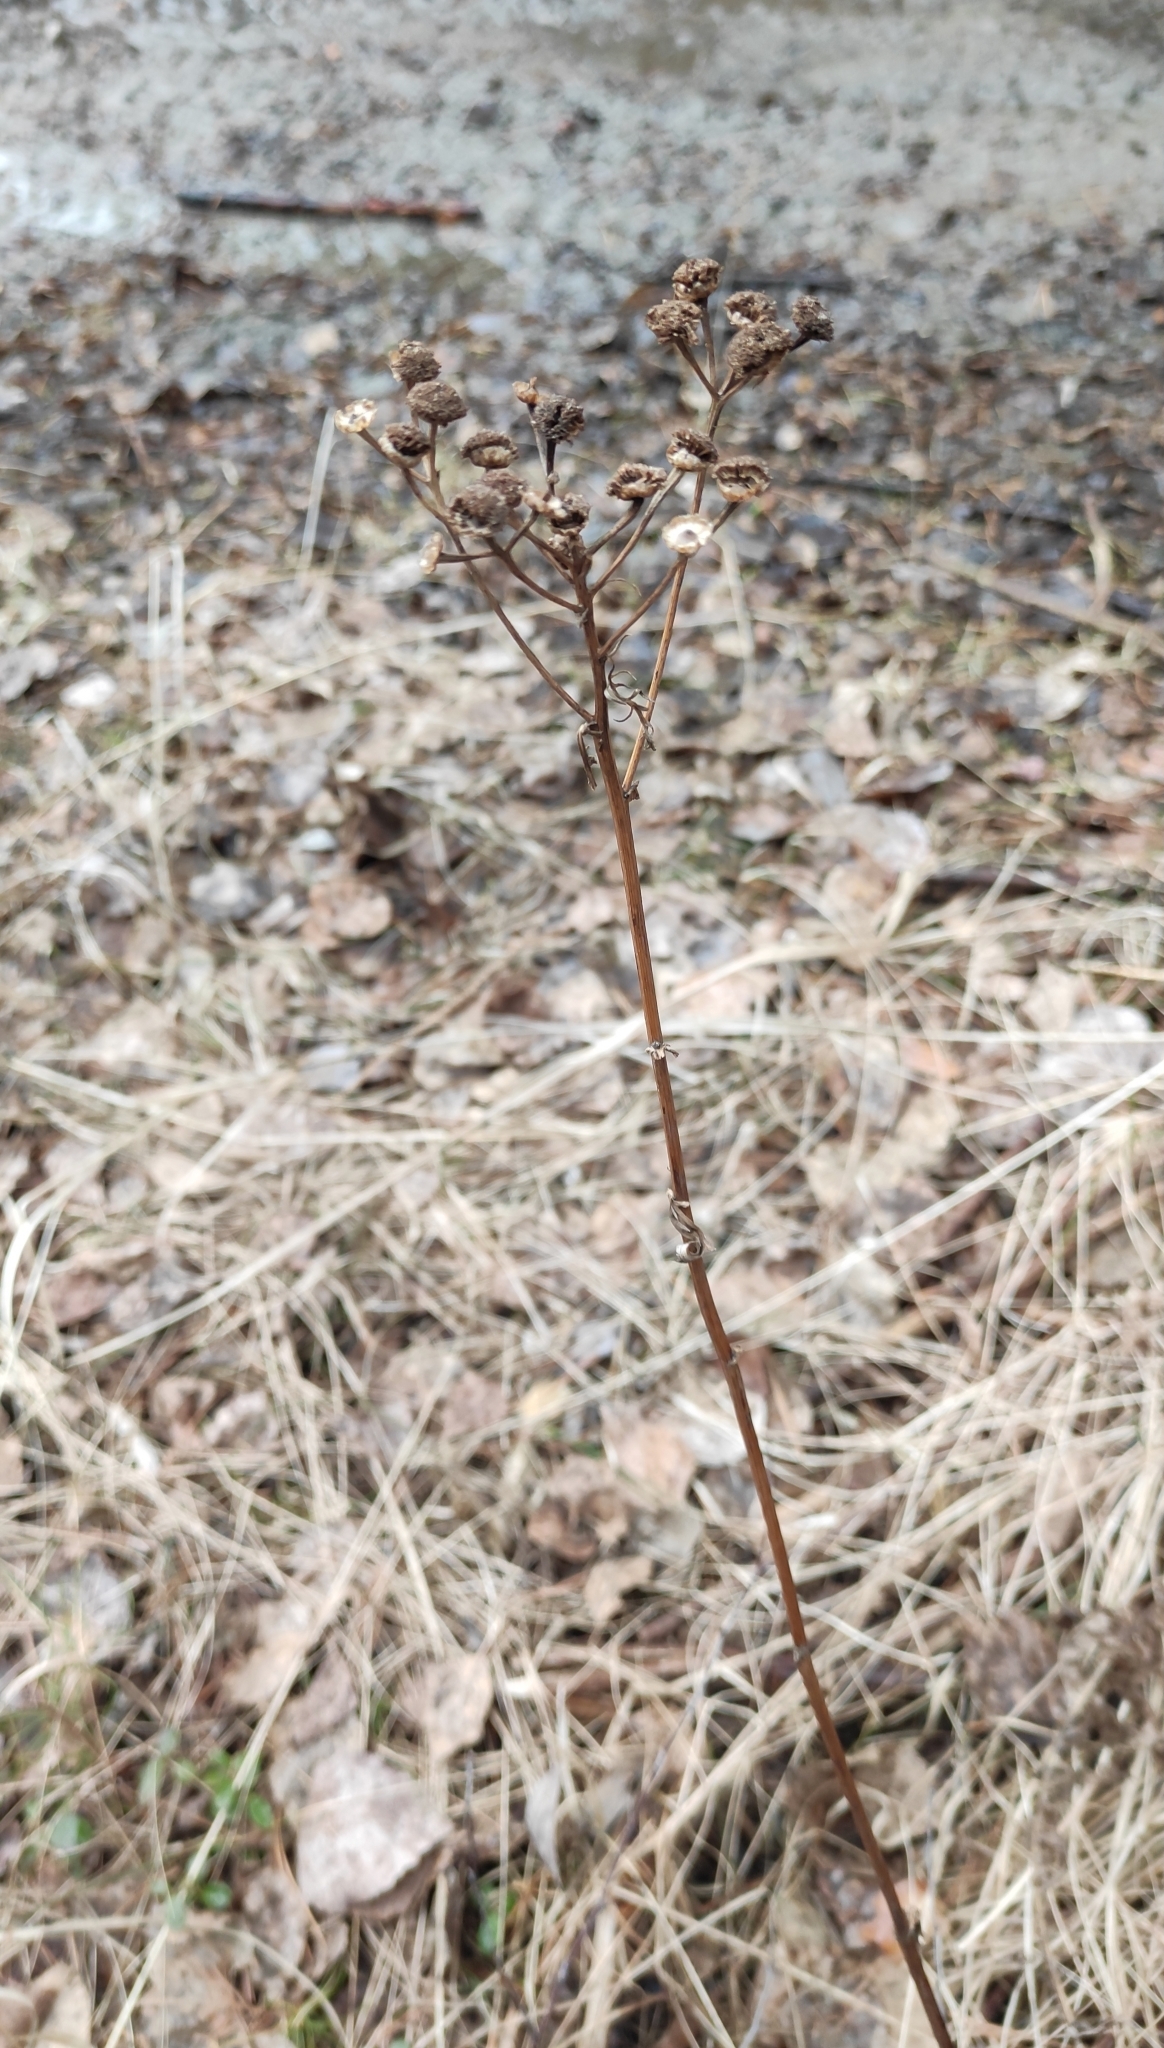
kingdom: Plantae
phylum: Tracheophyta
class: Magnoliopsida
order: Asterales
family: Asteraceae
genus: Tanacetum
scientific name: Tanacetum vulgare
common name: Common tansy
